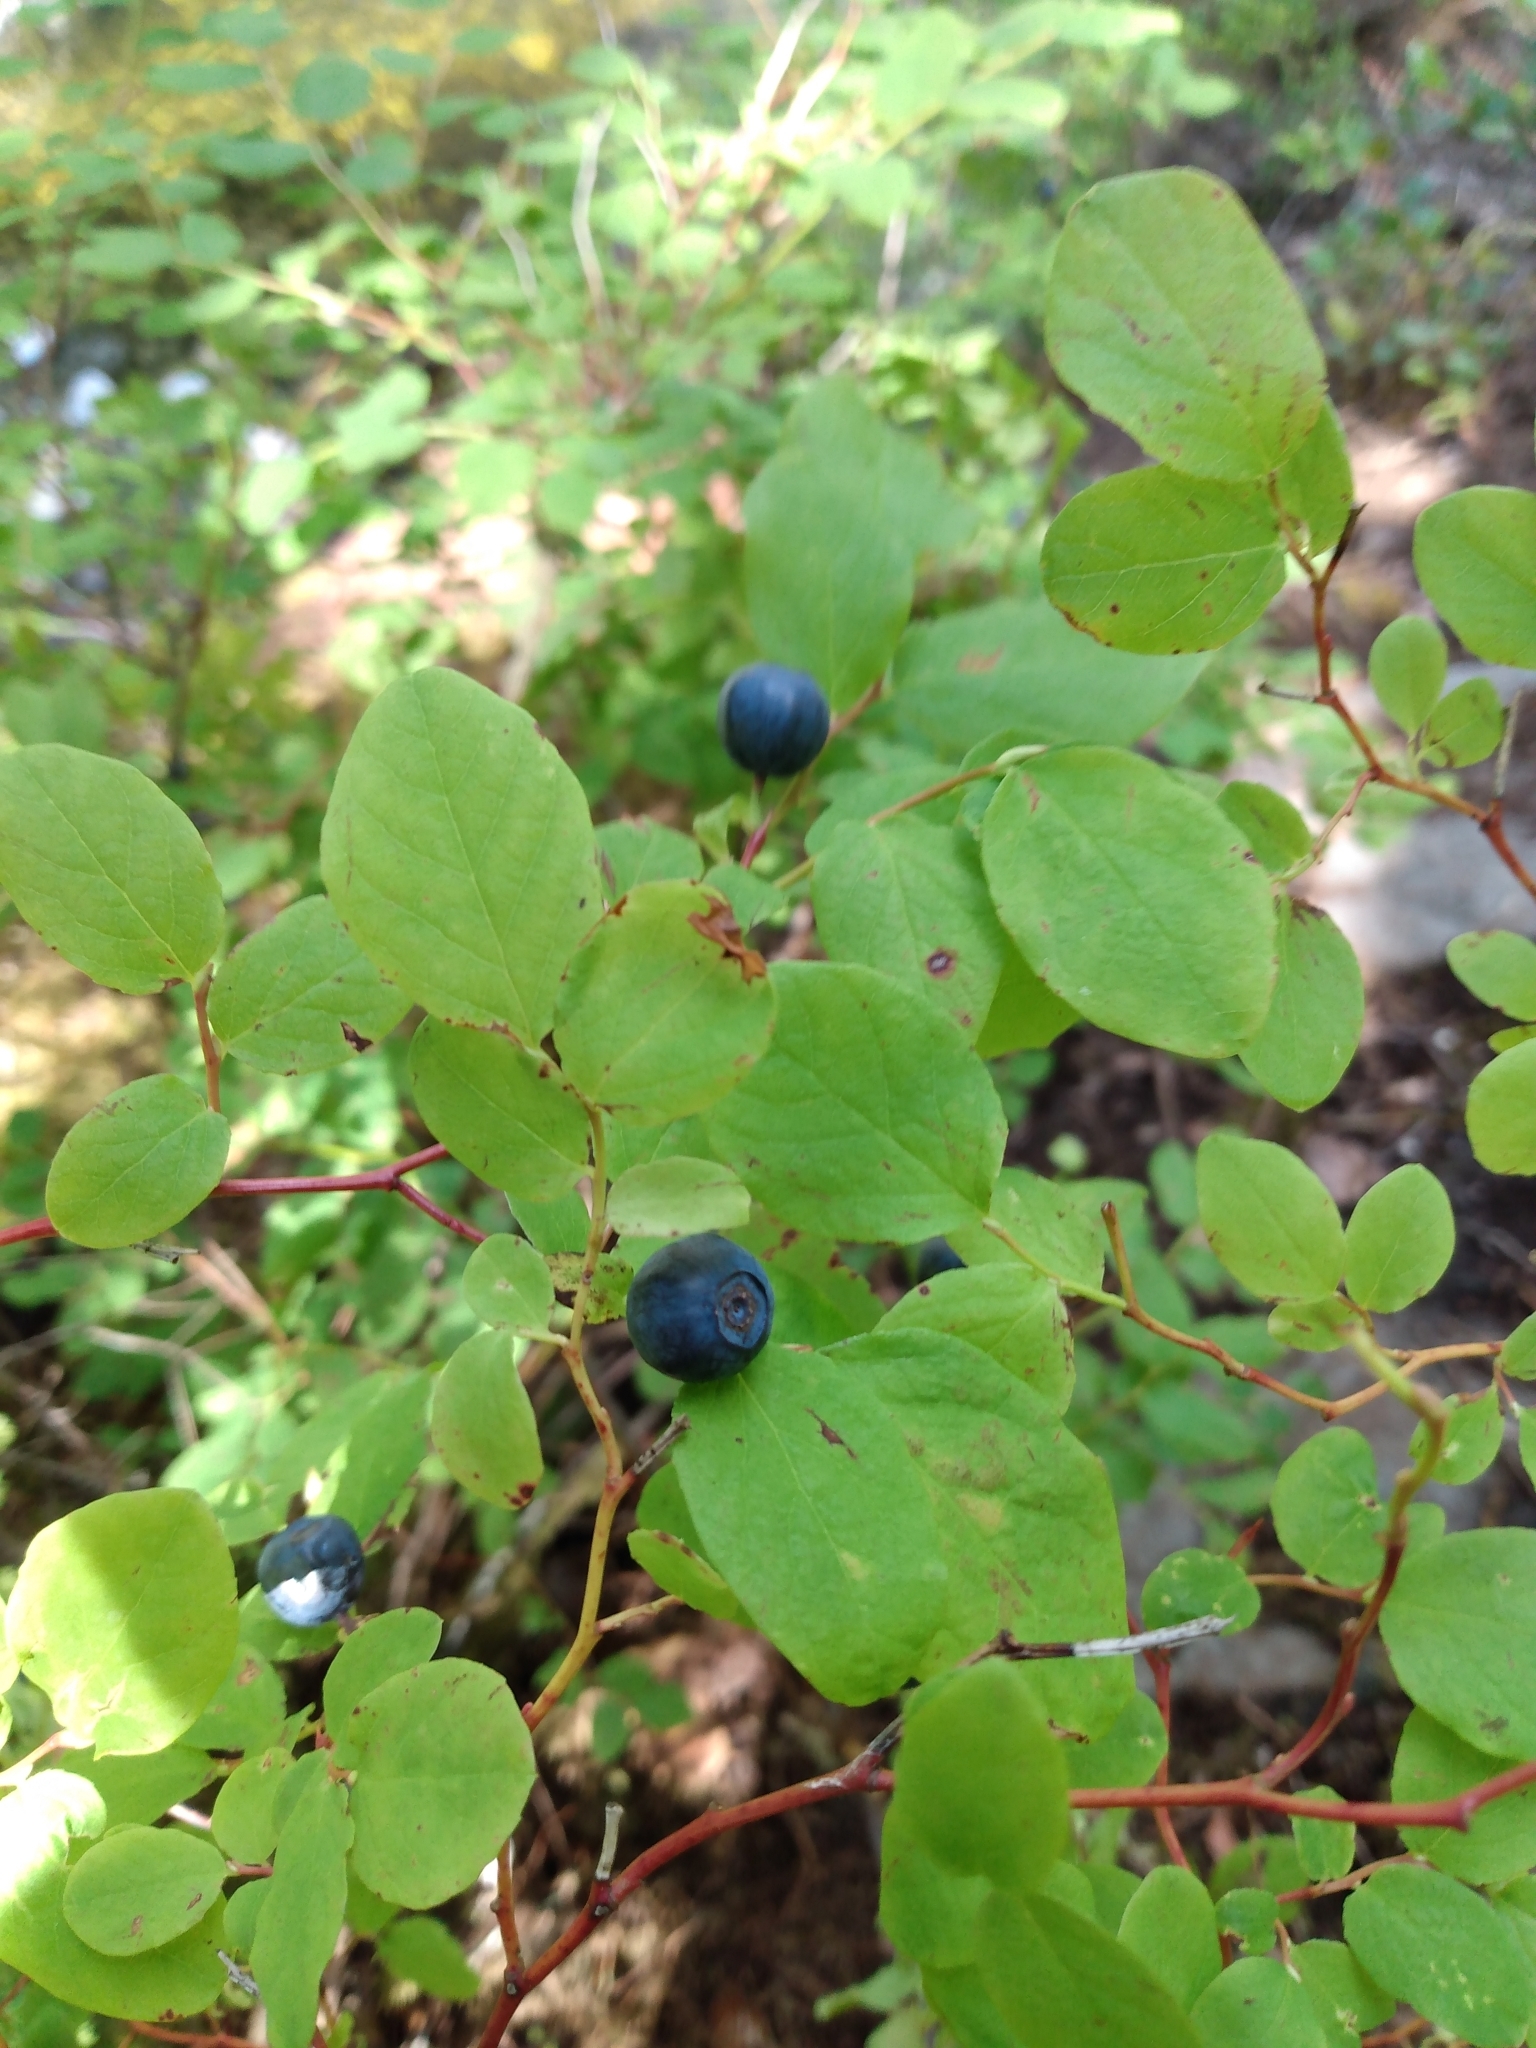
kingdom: Plantae
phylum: Tracheophyta
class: Magnoliopsida
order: Ericales
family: Ericaceae
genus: Vaccinium
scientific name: Vaccinium ovalifolium
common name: Early blueberry
